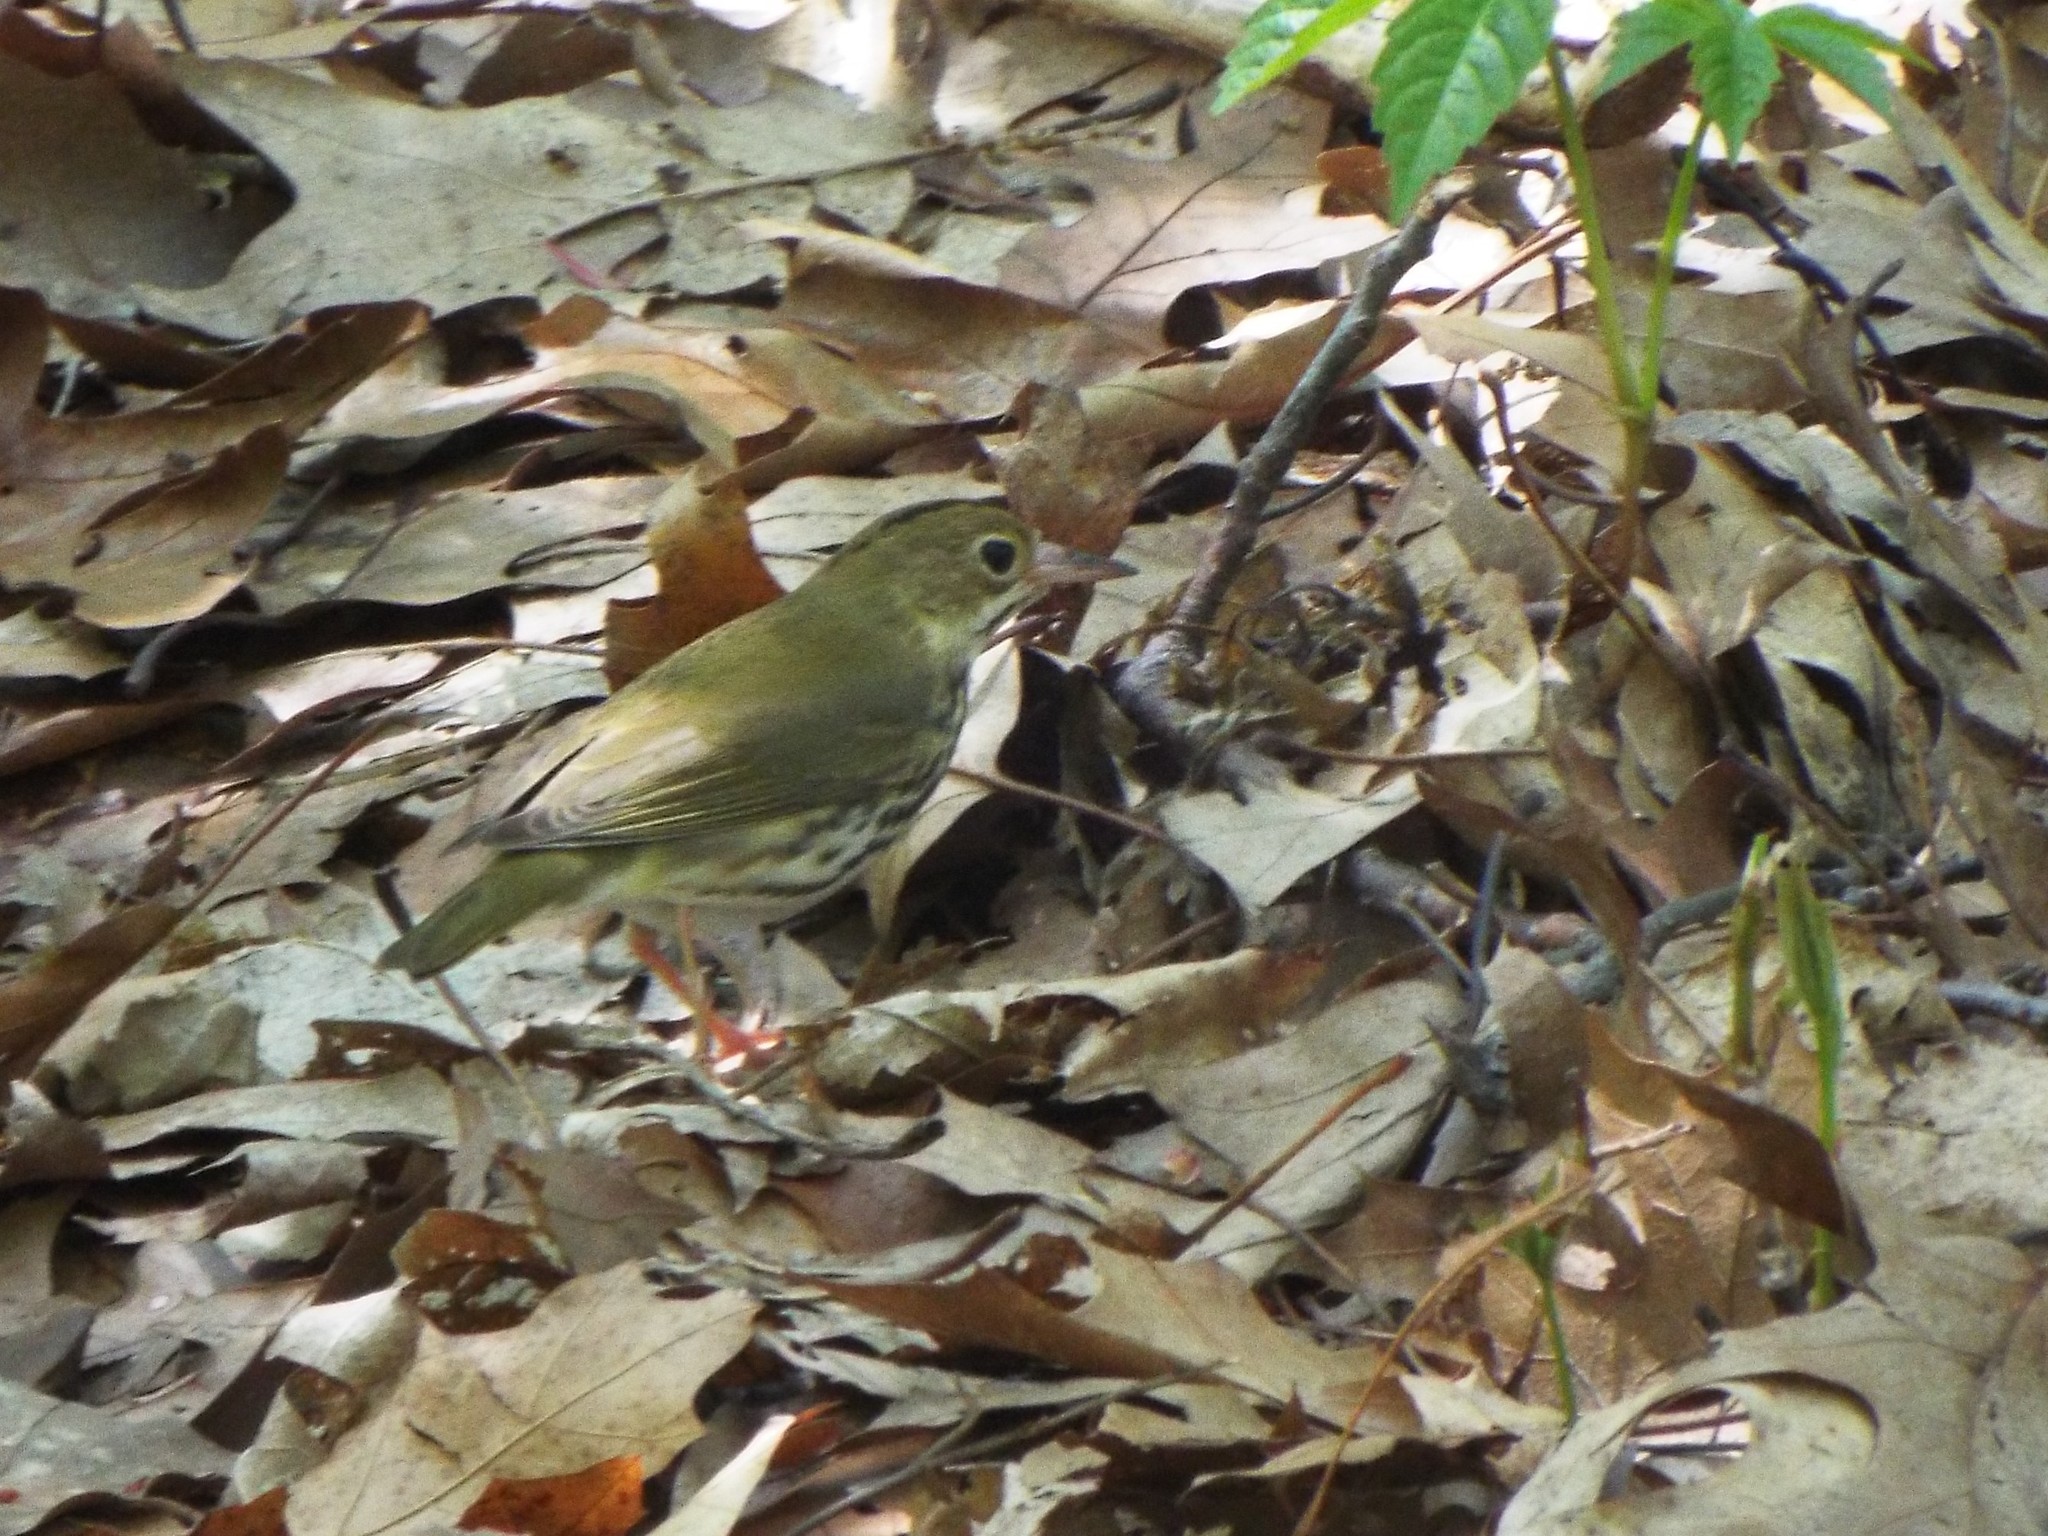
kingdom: Animalia
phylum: Chordata
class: Aves
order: Passeriformes
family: Parulidae
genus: Seiurus
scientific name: Seiurus aurocapilla
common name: Ovenbird
